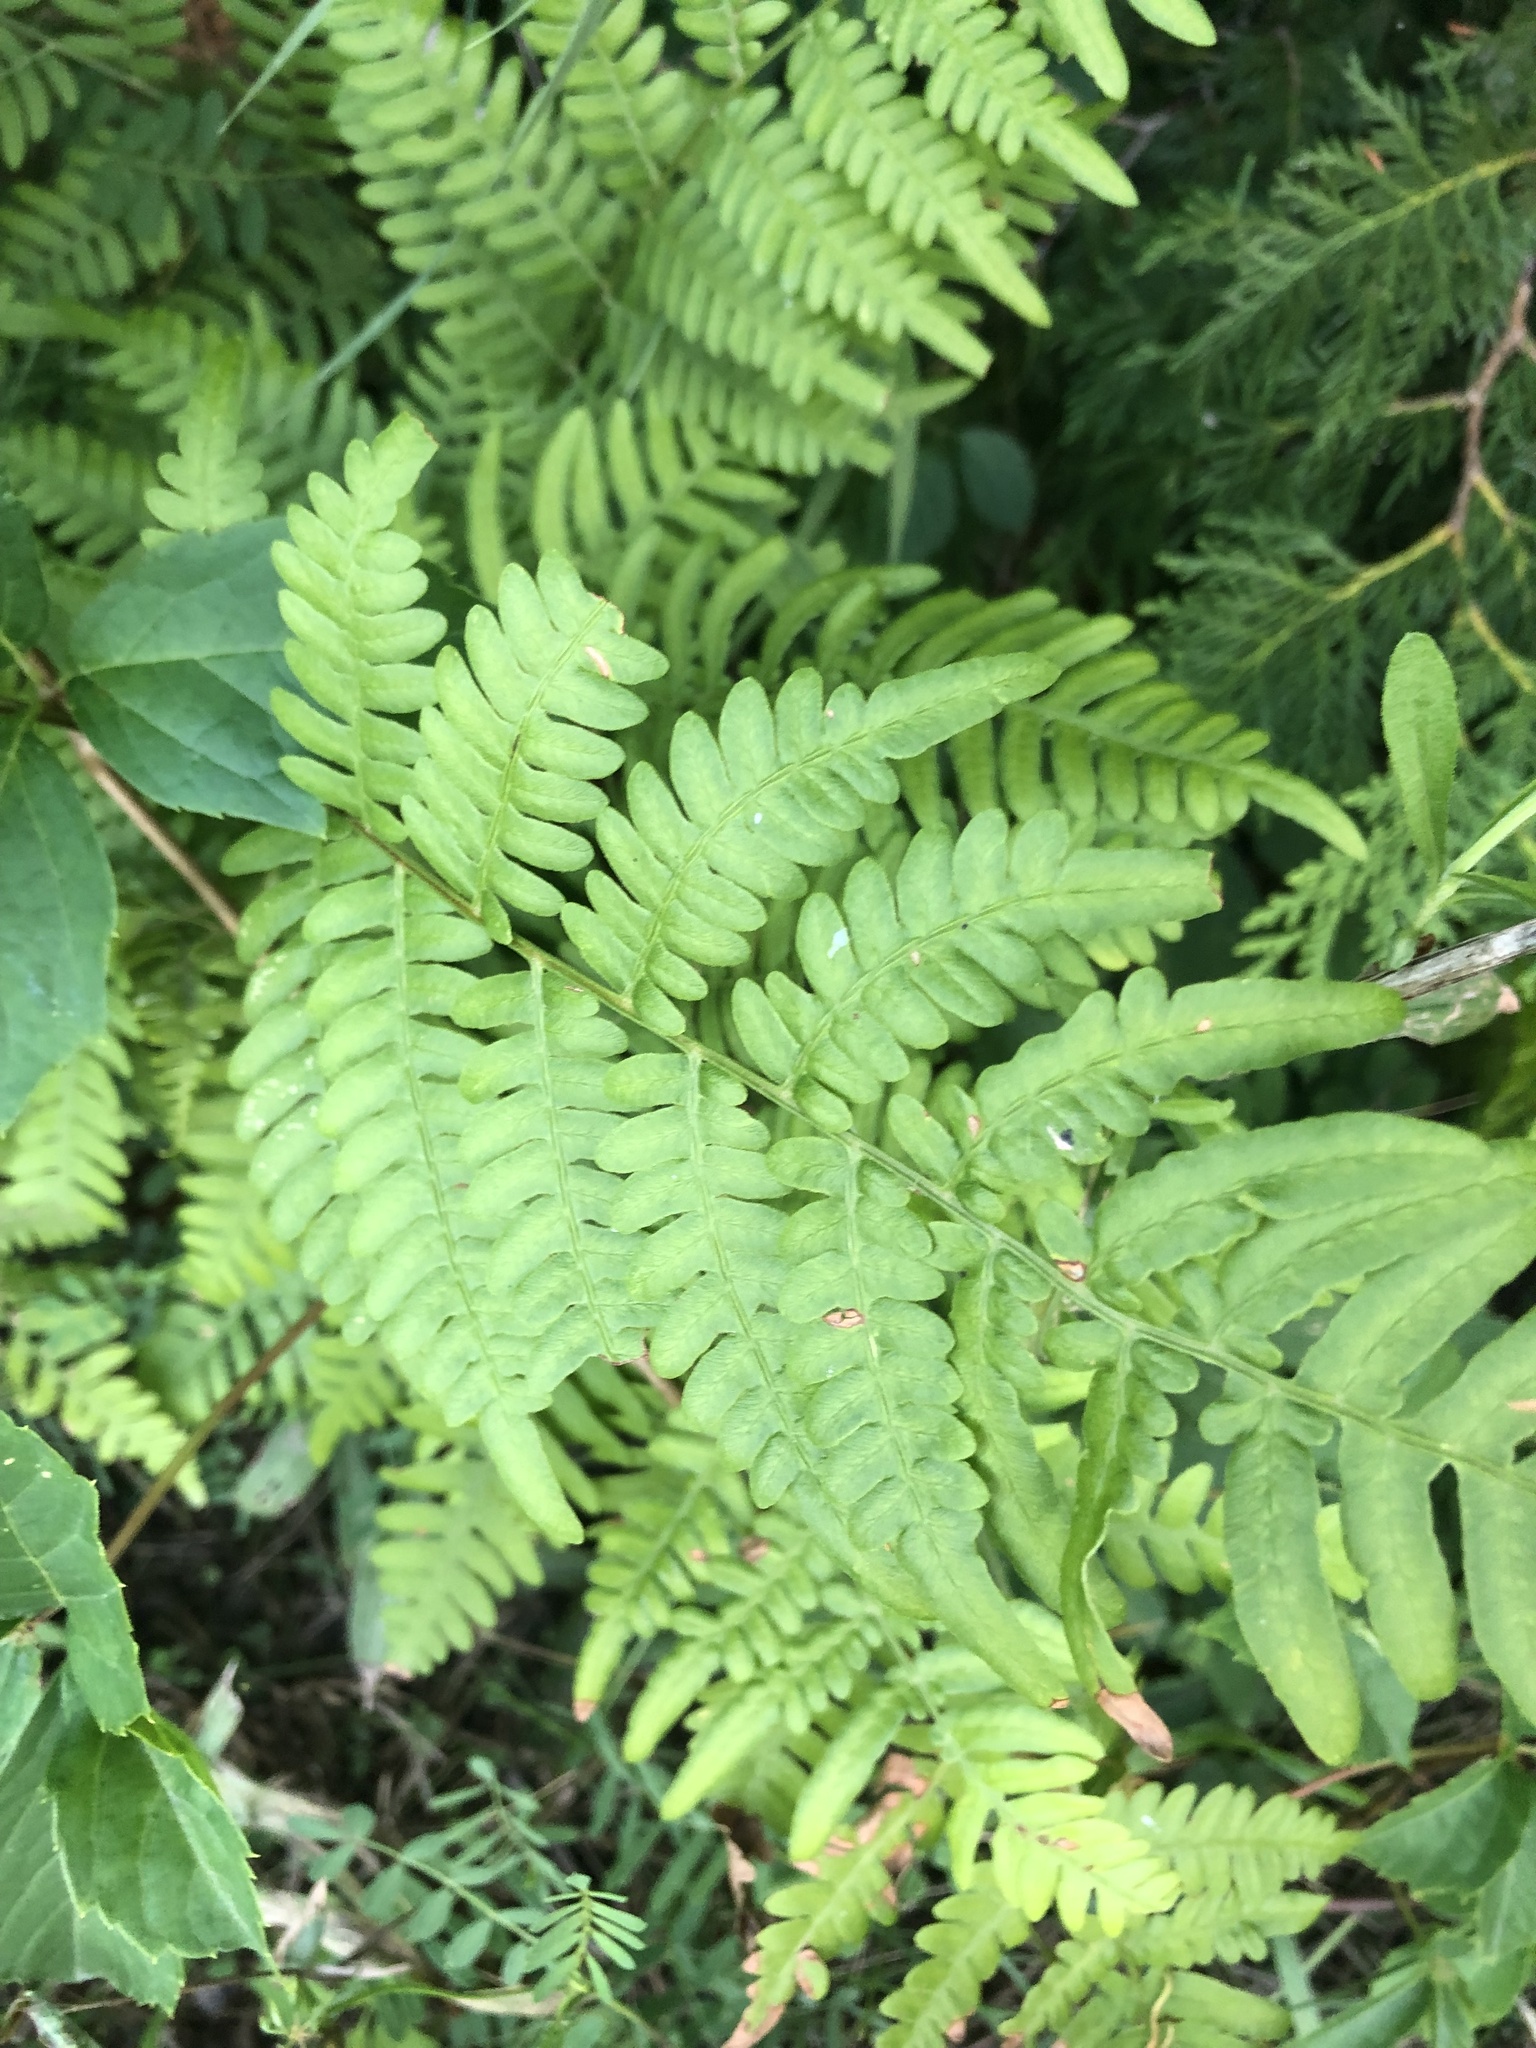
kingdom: Plantae
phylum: Tracheophyta
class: Polypodiopsida
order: Polypodiales
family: Dennstaedtiaceae
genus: Pteridium
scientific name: Pteridium aquilinum
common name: Bracken
